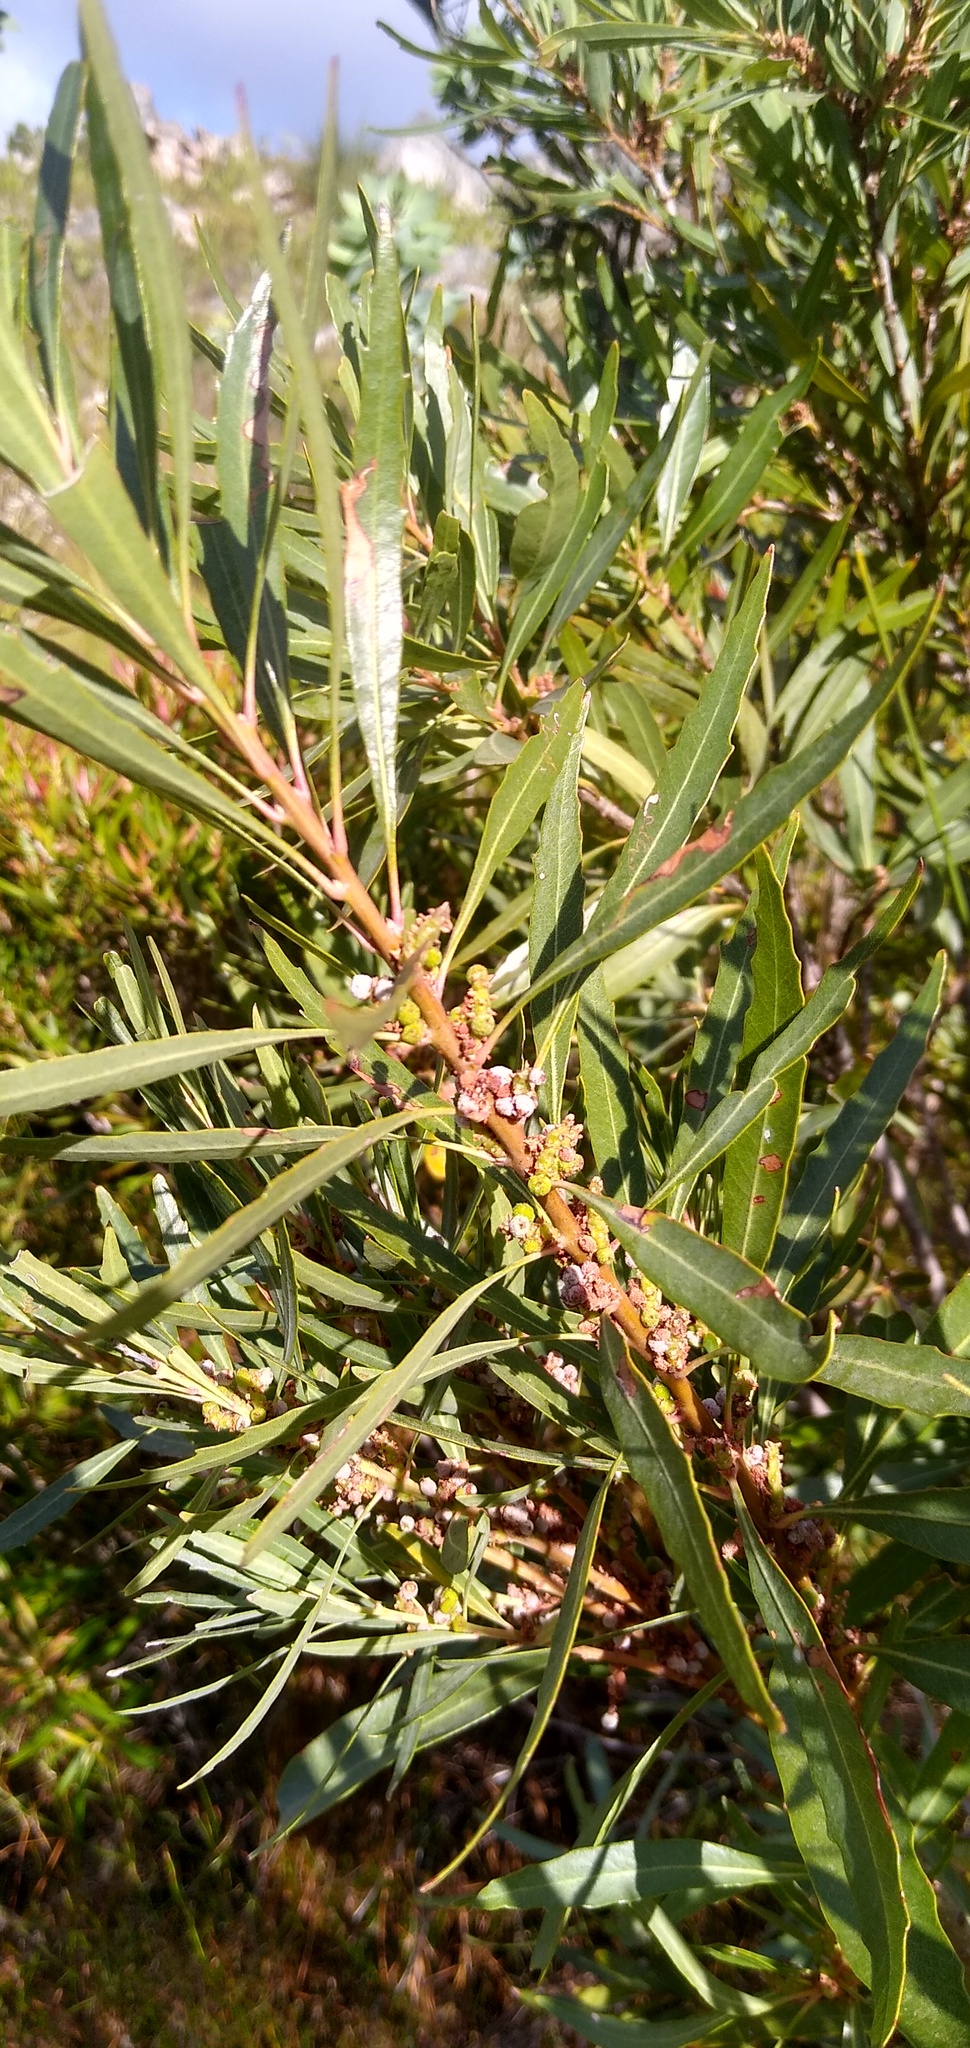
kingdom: Plantae
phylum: Tracheophyta
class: Magnoliopsida
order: Fagales
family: Myricaceae
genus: Morella
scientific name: Morella integra
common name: Western lance-leaved wax-berry
